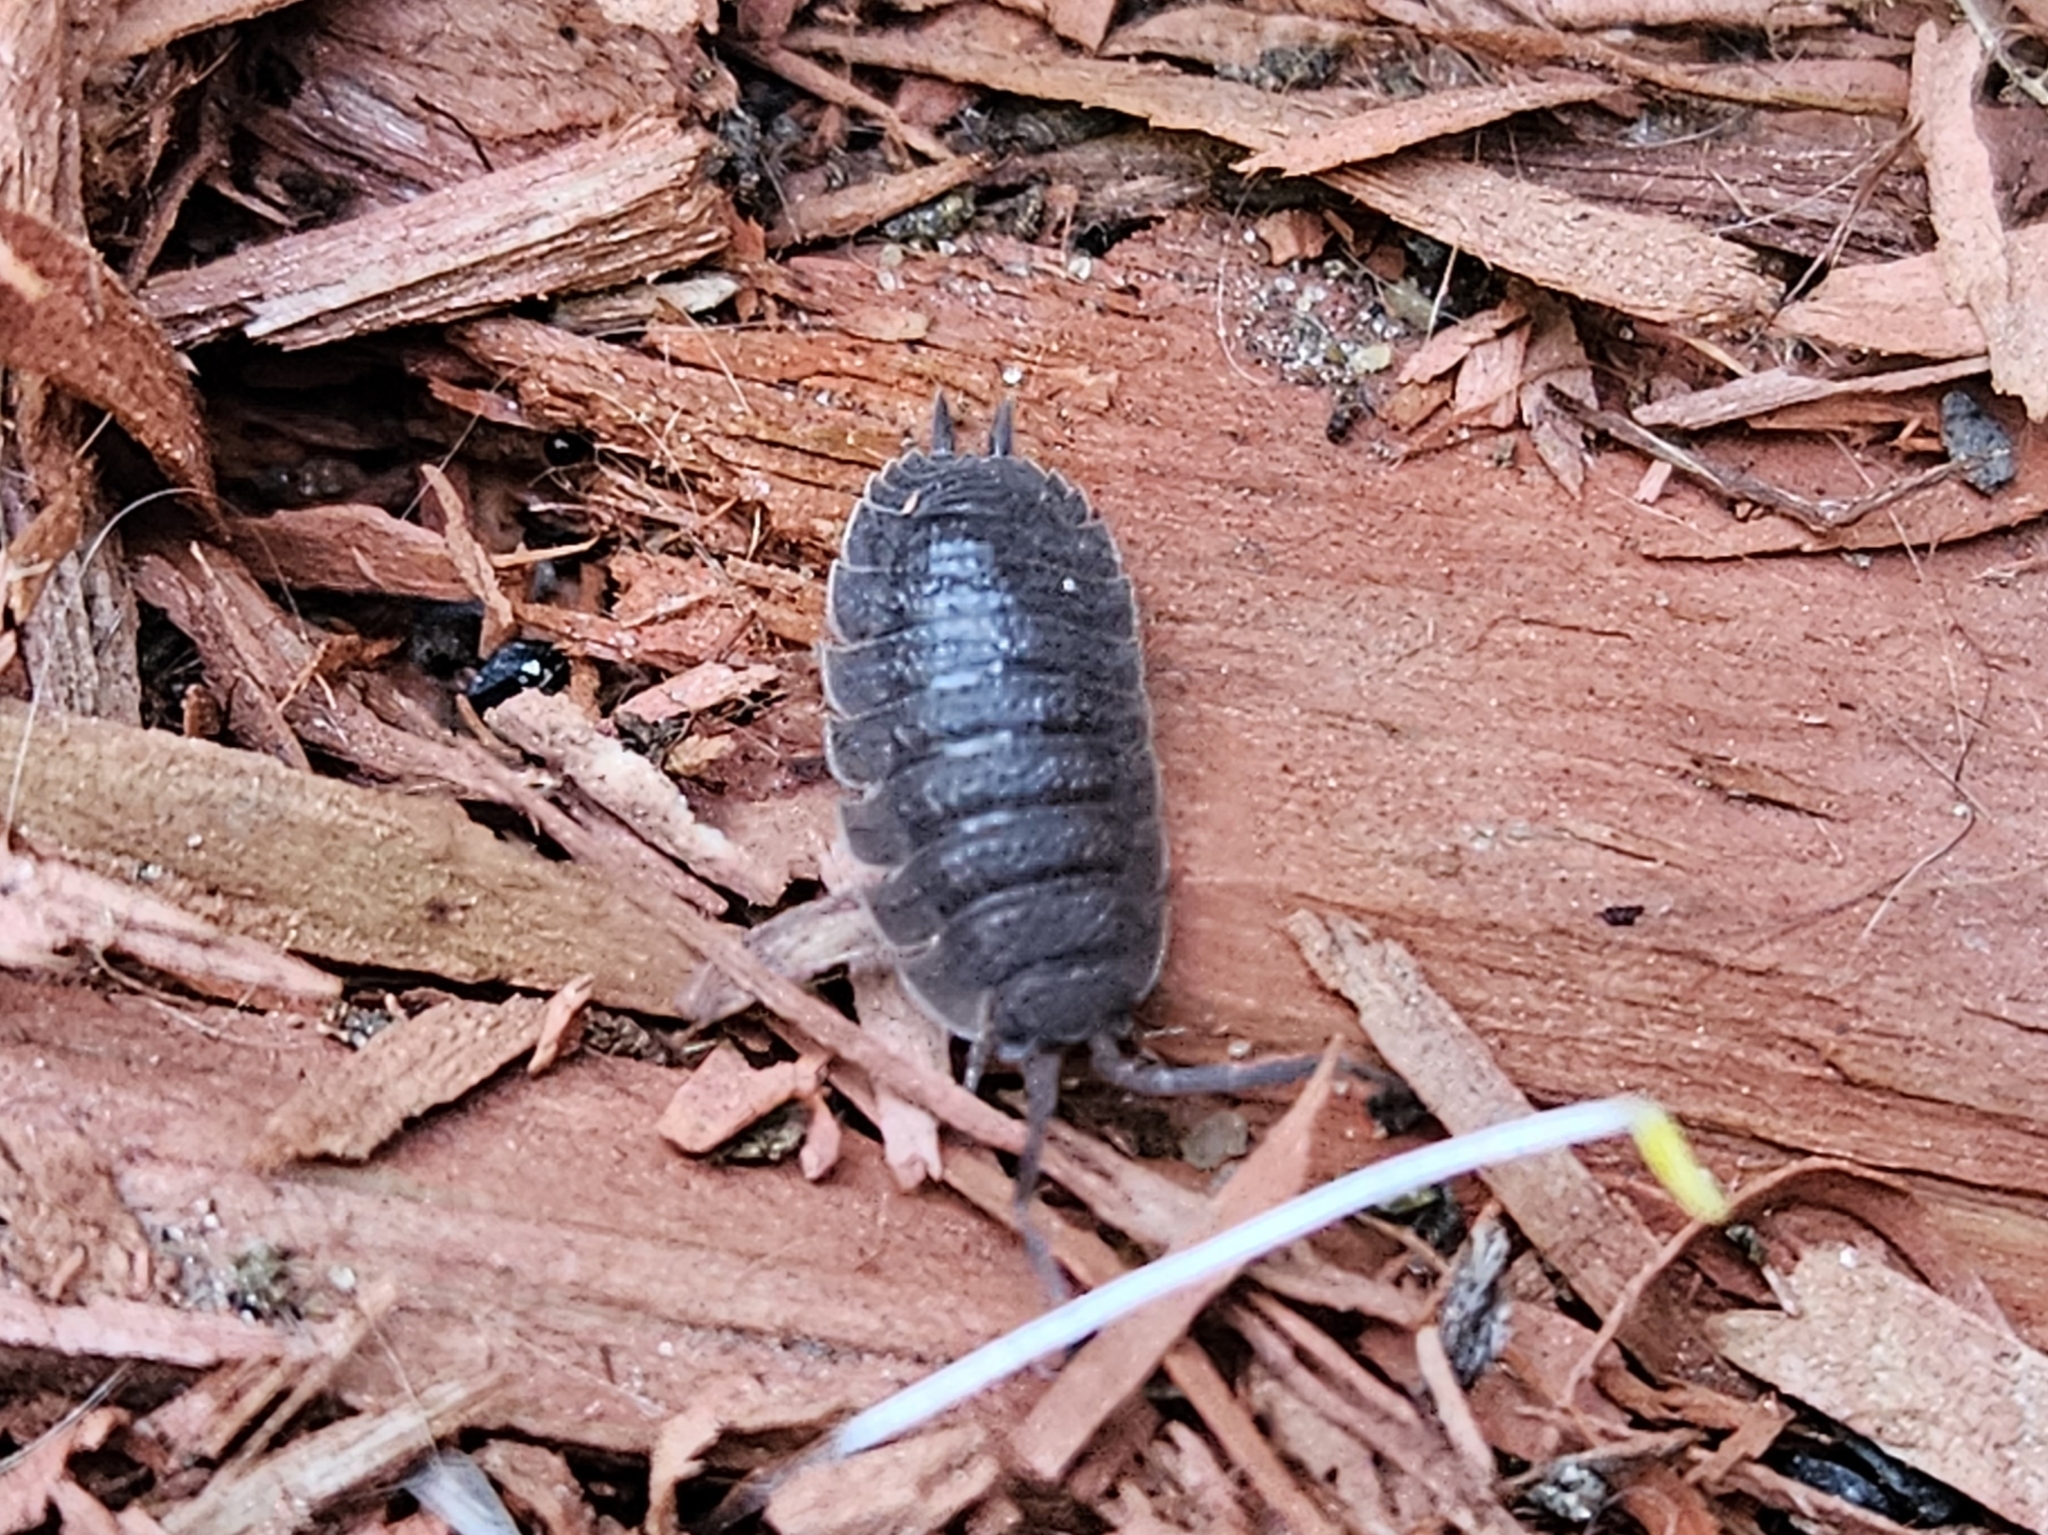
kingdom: Animalia
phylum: Arthropoda
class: Malacostraca
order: Isopoda
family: Porcellionidae
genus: Porcellio
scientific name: Porcellio scaber
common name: Common rough woodlouse
